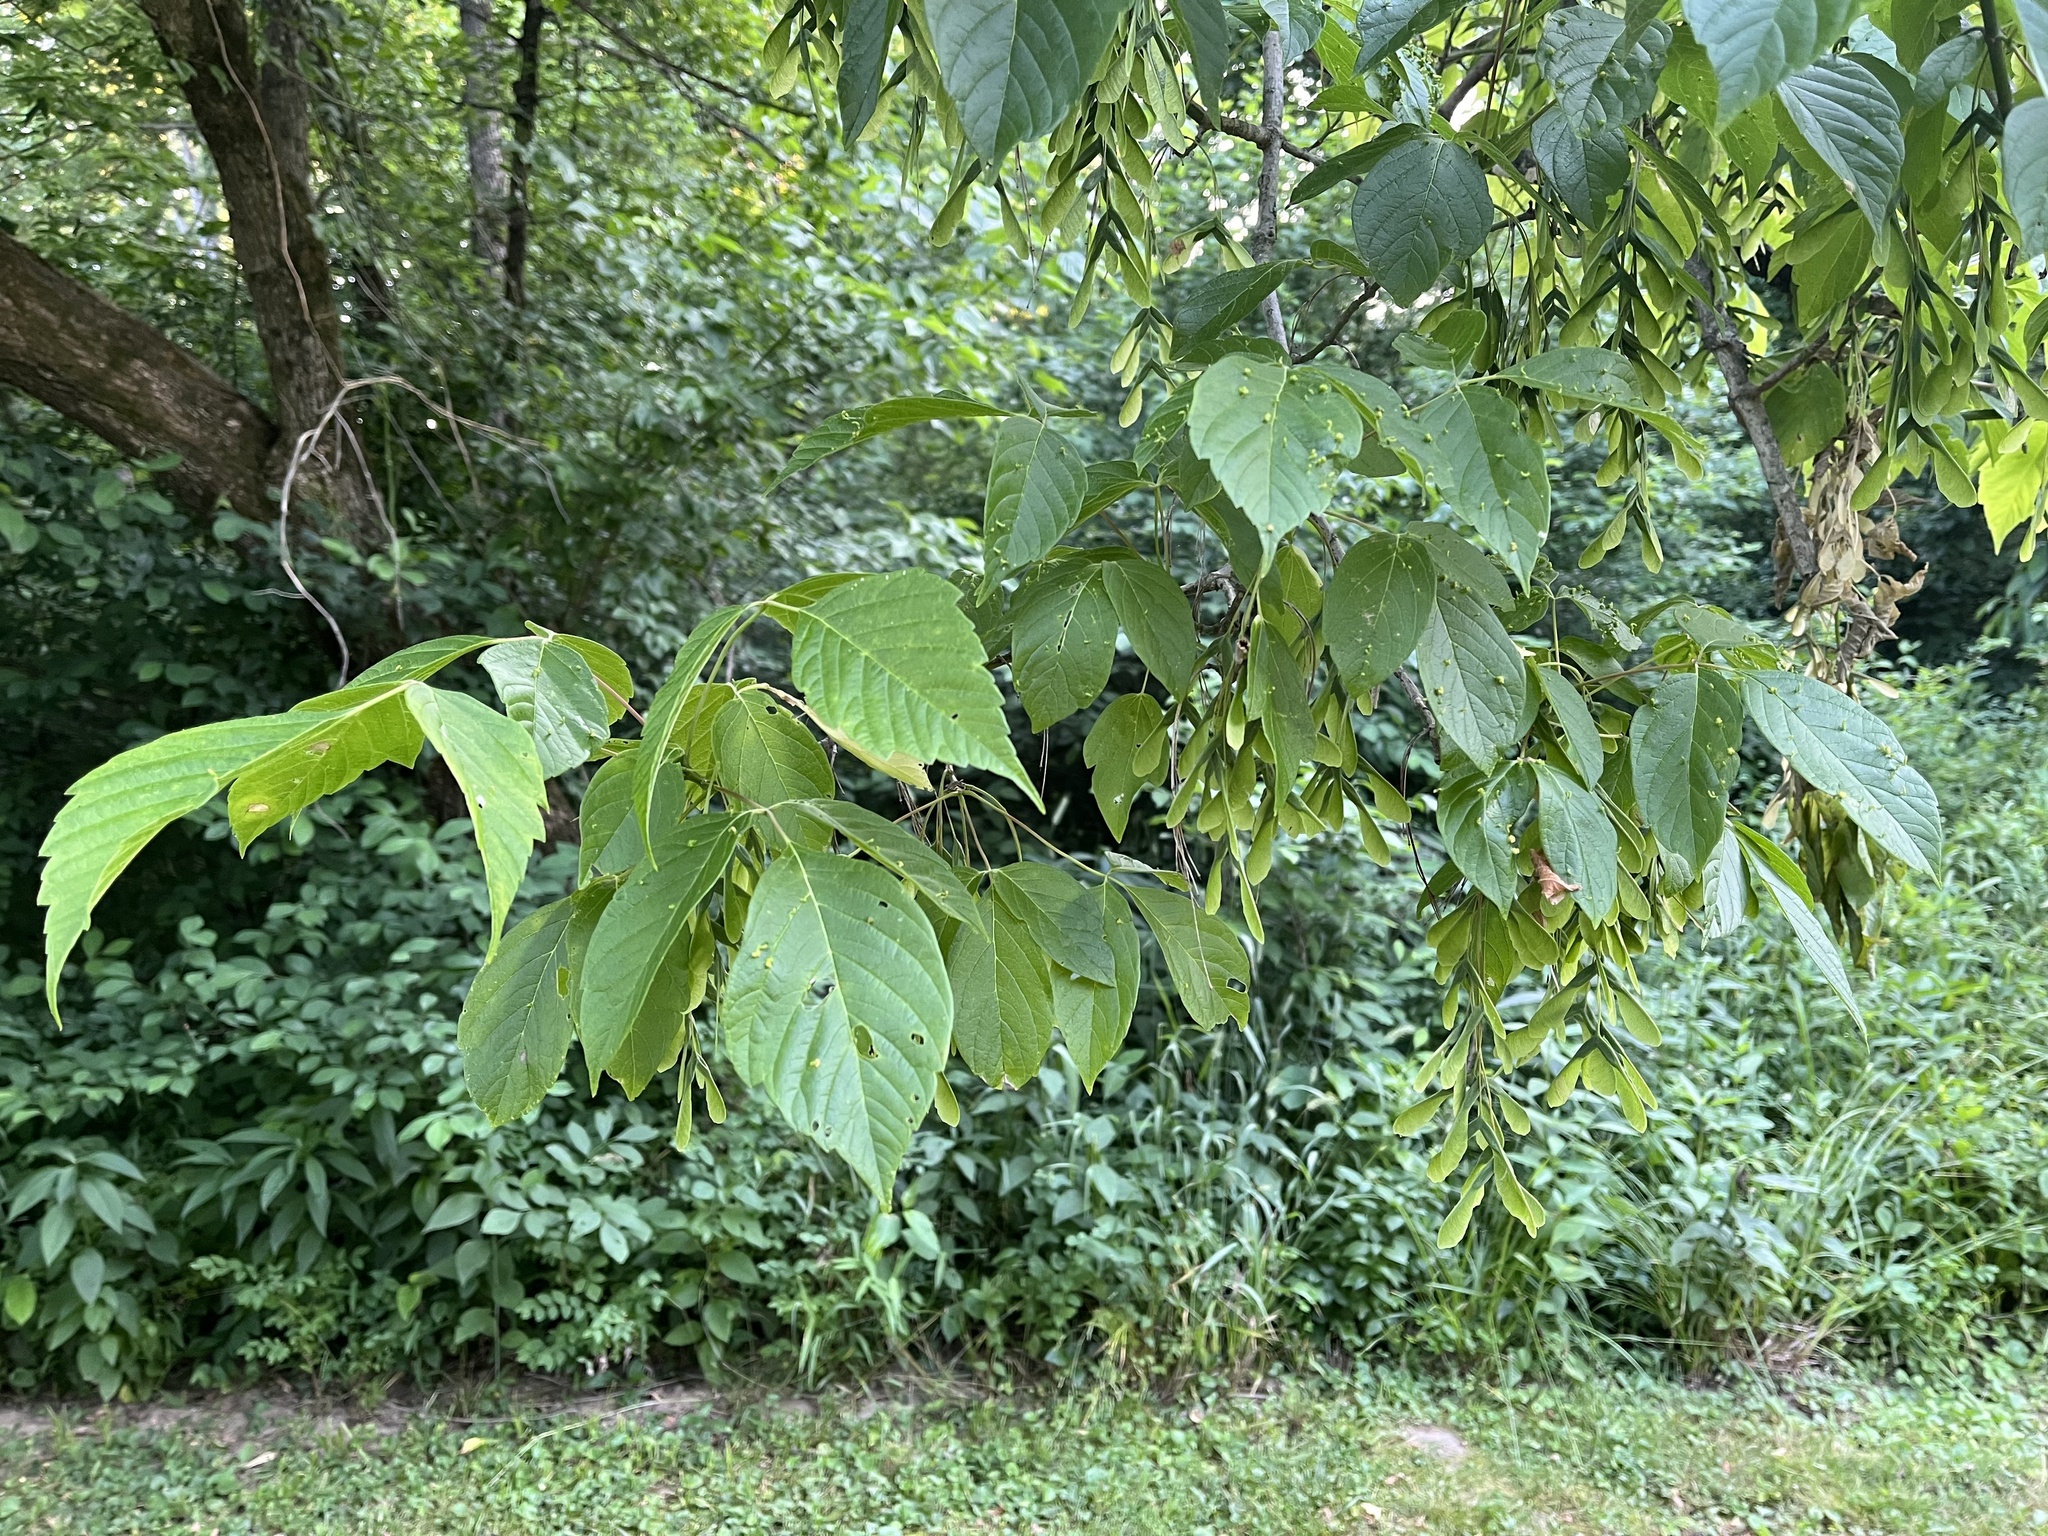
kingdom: Plantae
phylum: Tracheophyta
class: Magnoliopsida
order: Sapindales
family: Sapindaceae
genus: Acer
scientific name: Acer negundo
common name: Ashleaf maple
